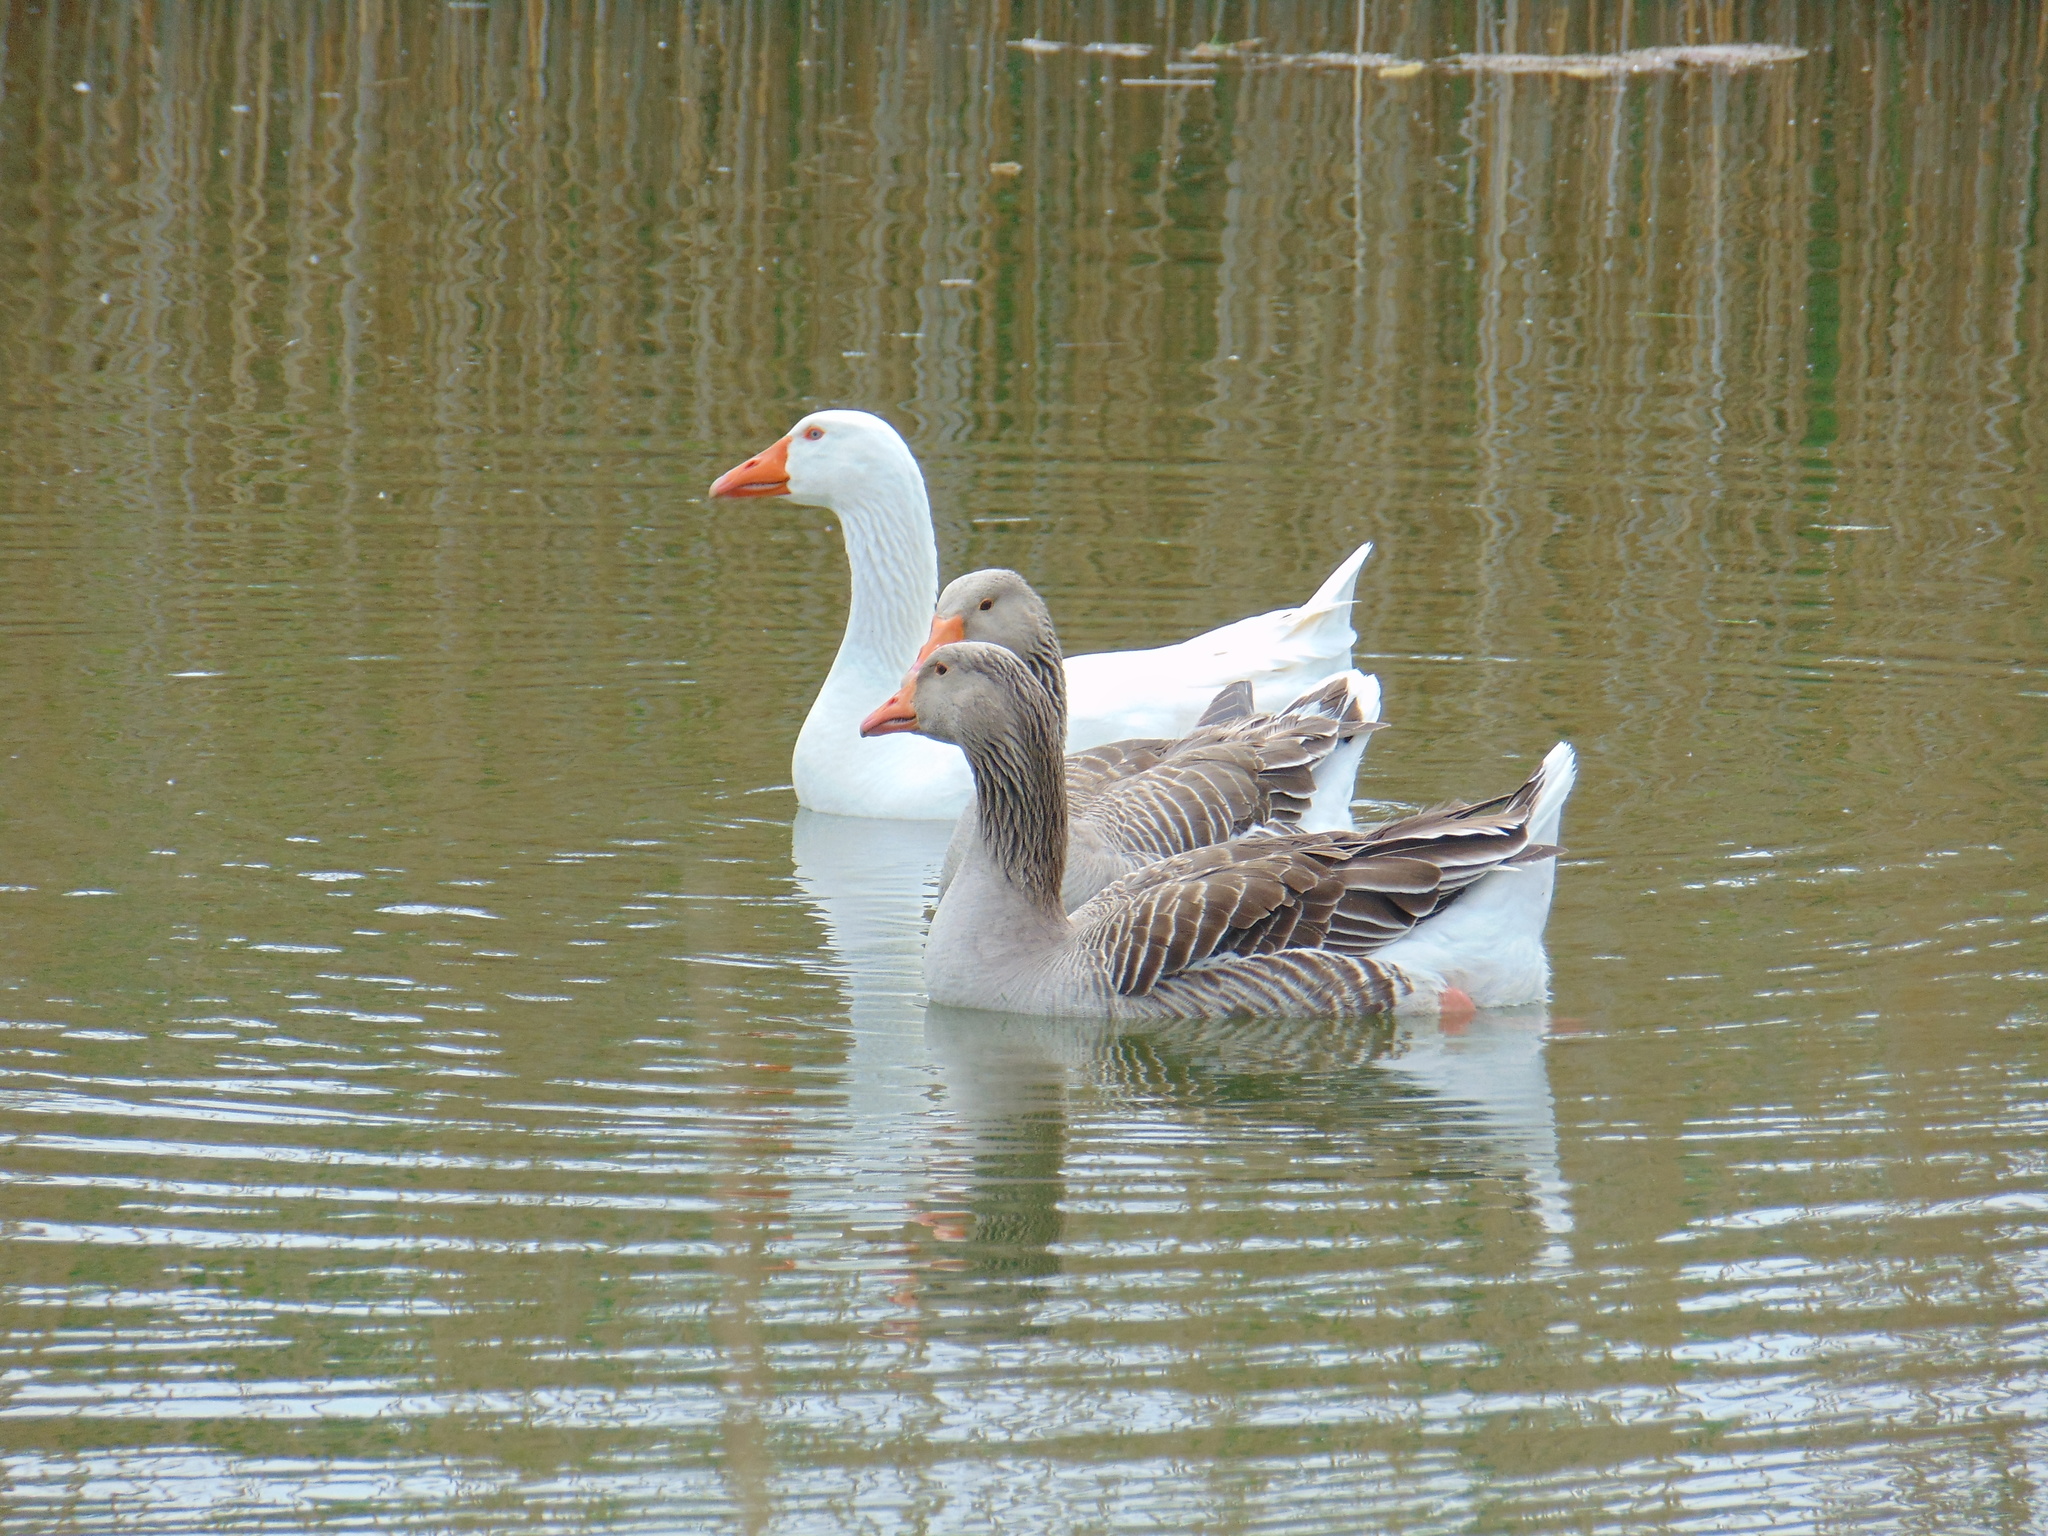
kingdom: Animalia
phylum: Chordata
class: Aves
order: Anseriformes
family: Anatidae
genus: Anser
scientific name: Anser anser
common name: Greylag goose
